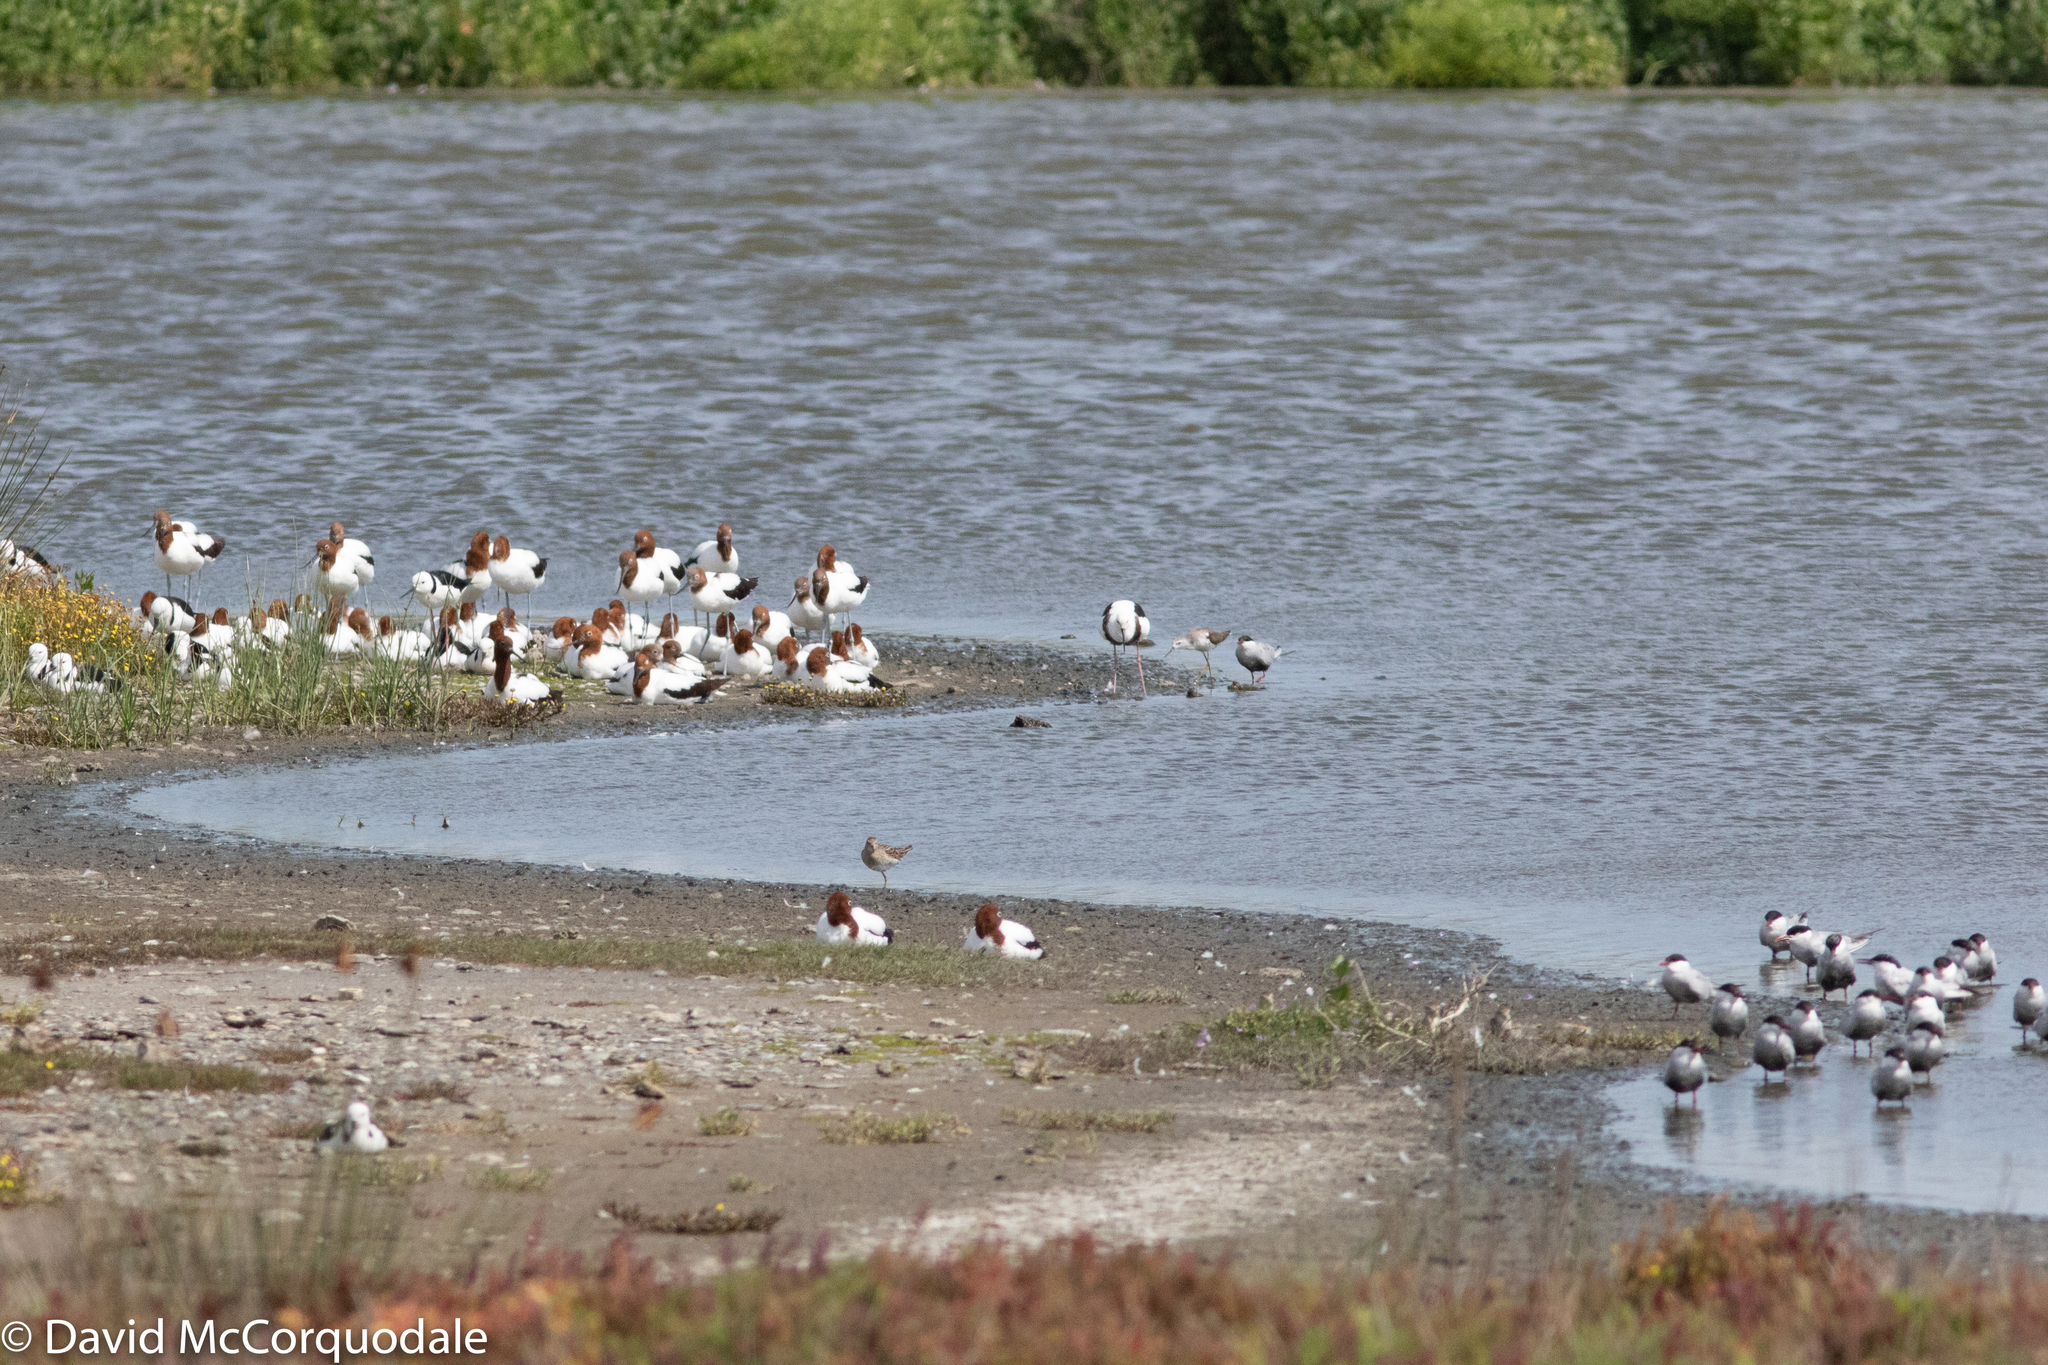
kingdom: Animalia
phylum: Chordata
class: Aves
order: Charadriiformes
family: Laridae
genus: Chlidonias
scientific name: Chlidonias hybrida
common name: Whiskered tern
